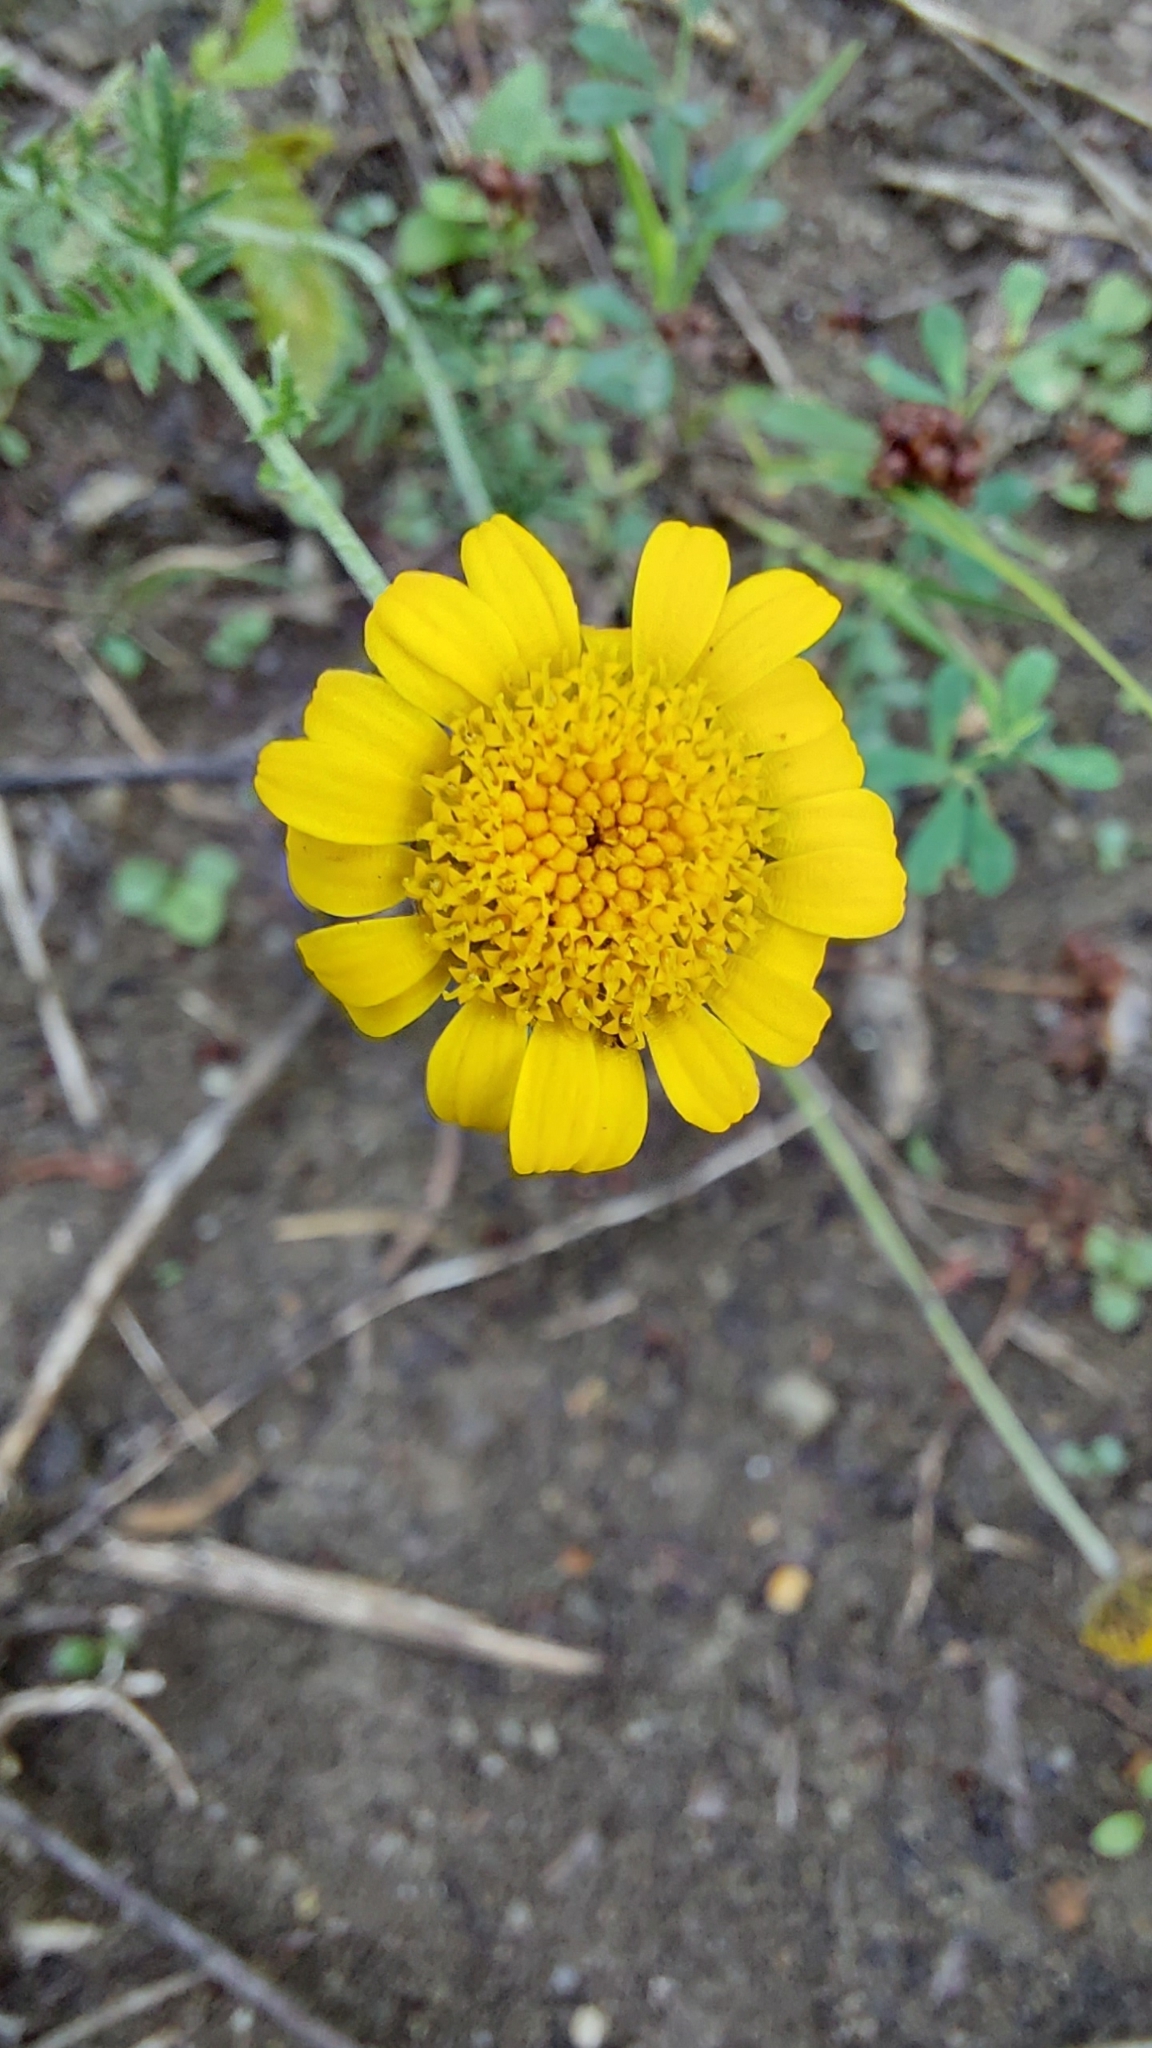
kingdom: Plantae
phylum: Tracheophyta
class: Magnoliopsida
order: Asterales
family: Asteraceae
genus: Cota
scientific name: Cota tinctoria
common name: Golden chamomile
